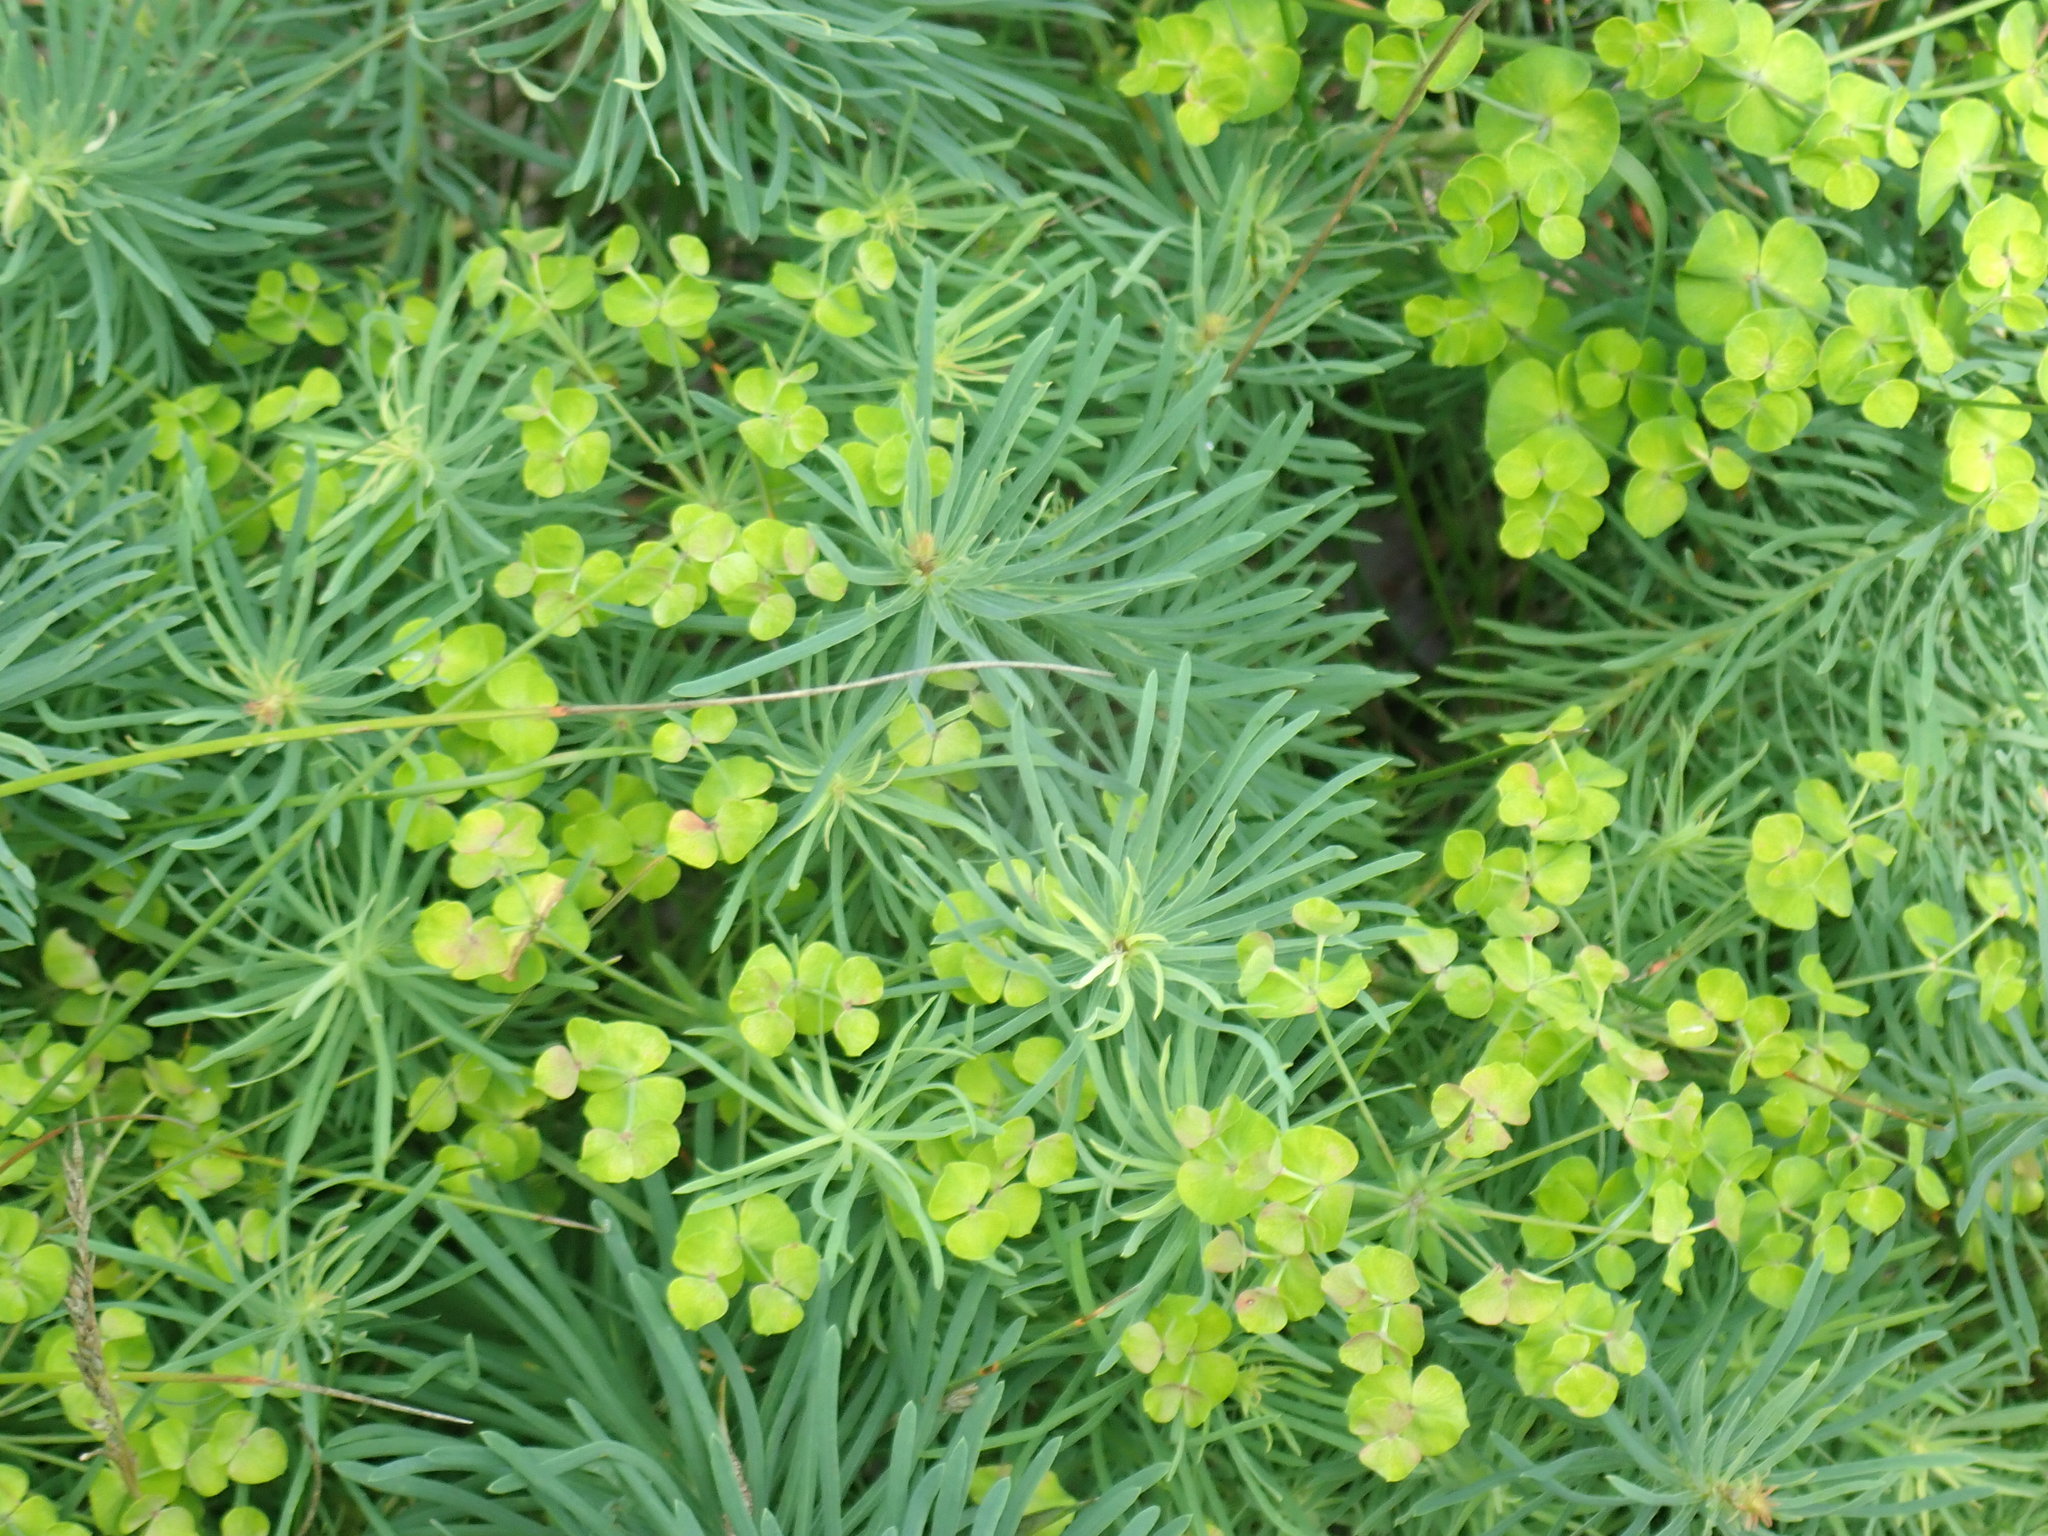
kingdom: Plantae
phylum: Tracheophyta
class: Magnoliopsida
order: Malpighiales
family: Euphorbiaceae
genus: Euphorbia
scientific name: Euphorbia cyparissias
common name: Cypress spurge
